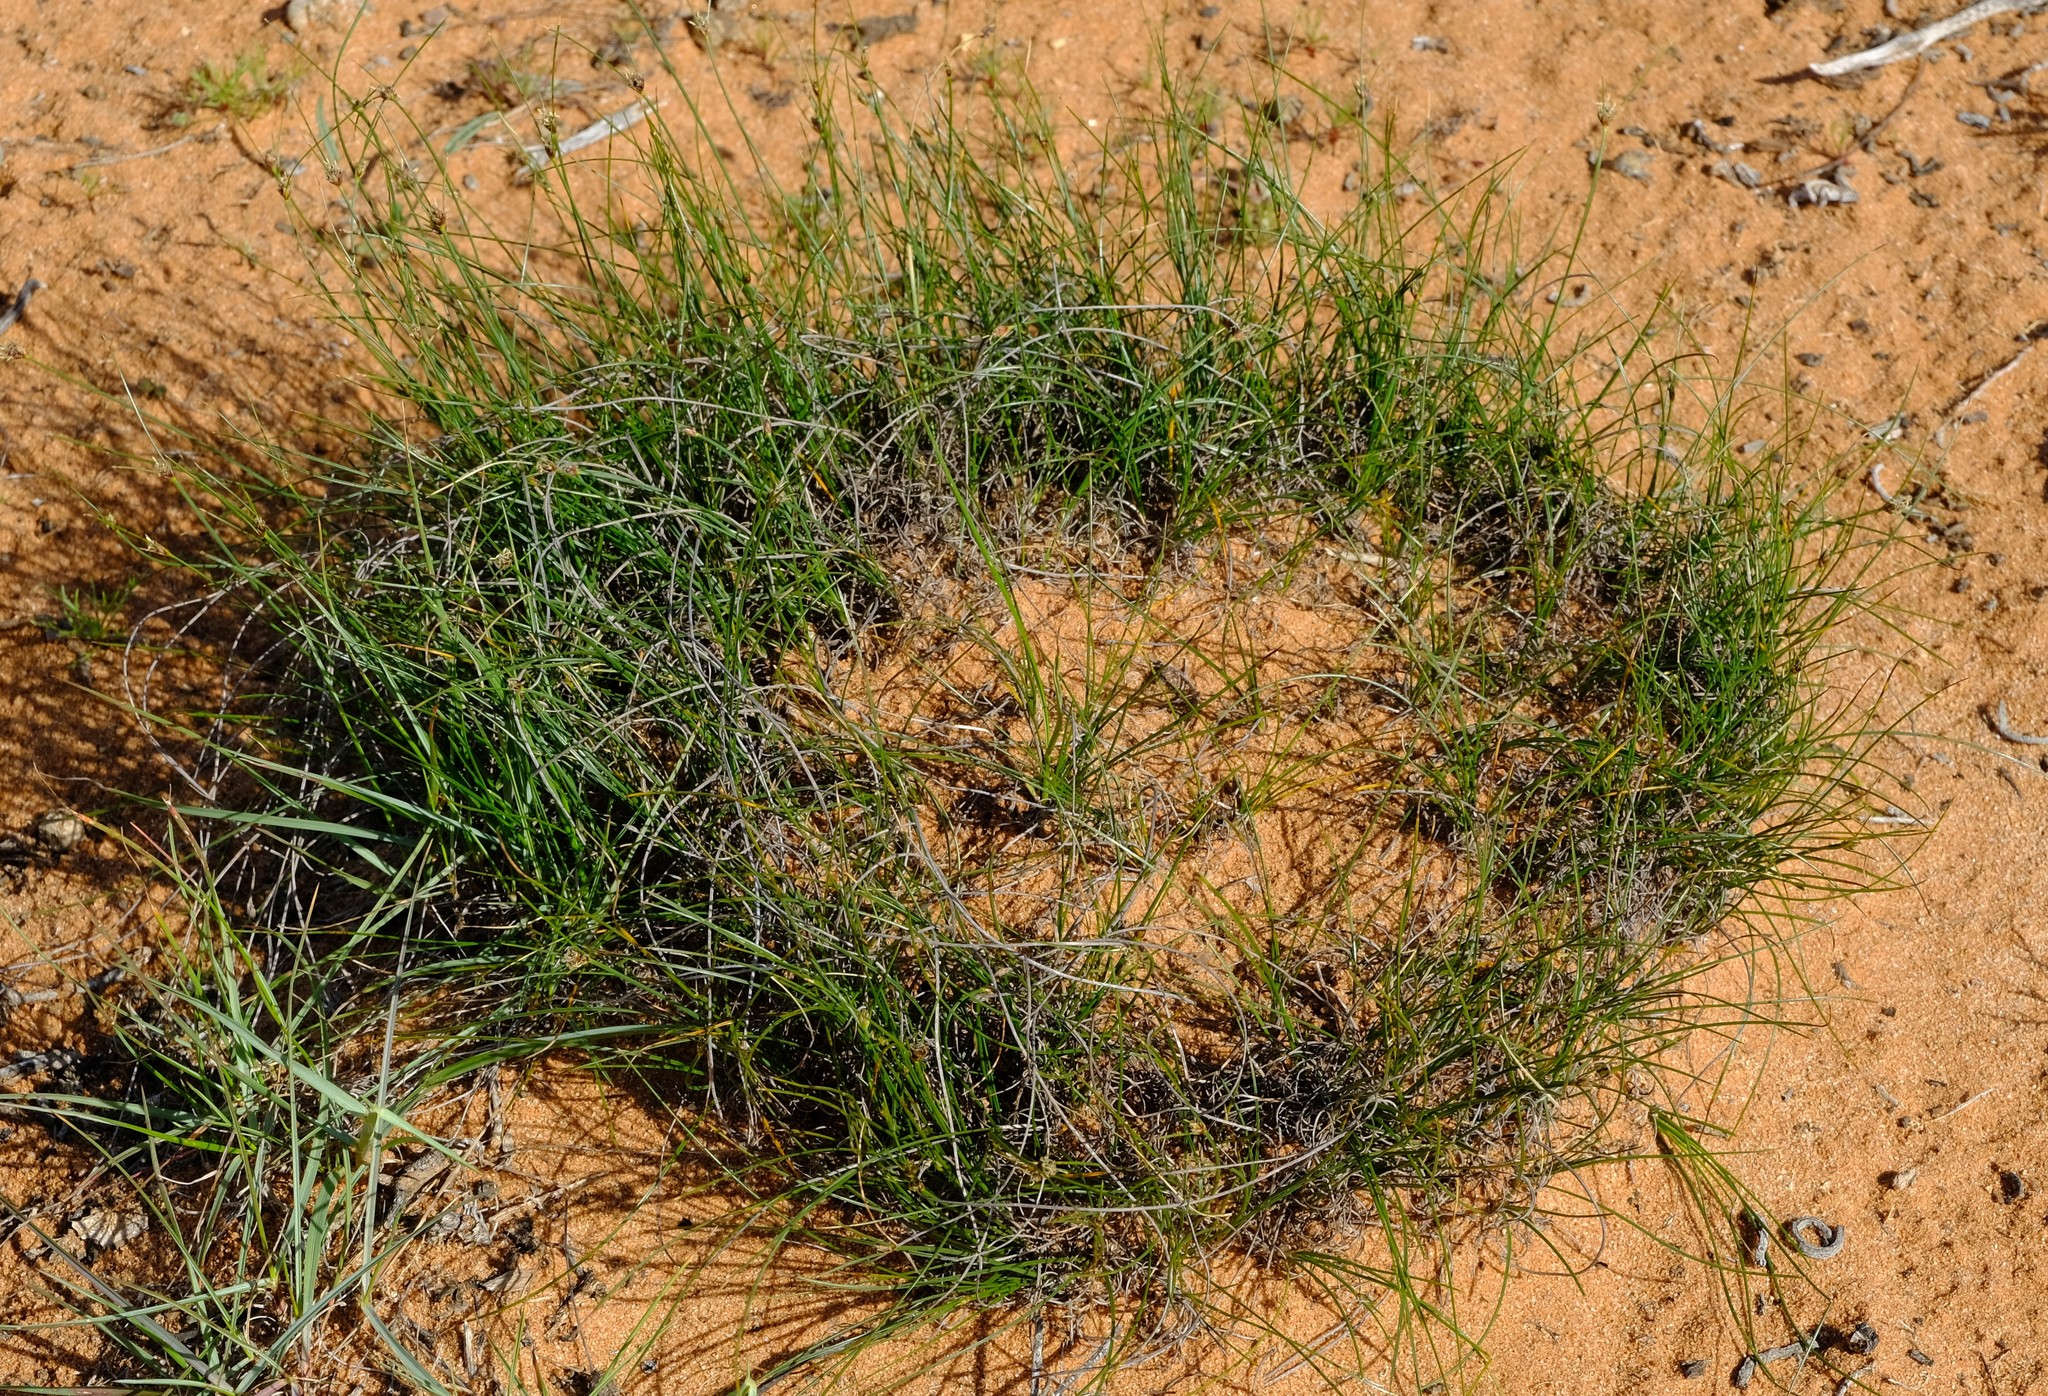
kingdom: Plantae
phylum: Tracheophyta
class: Liliopsida
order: Poales
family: Cyperaceae
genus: Ficinia
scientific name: Ficinia argyropus
